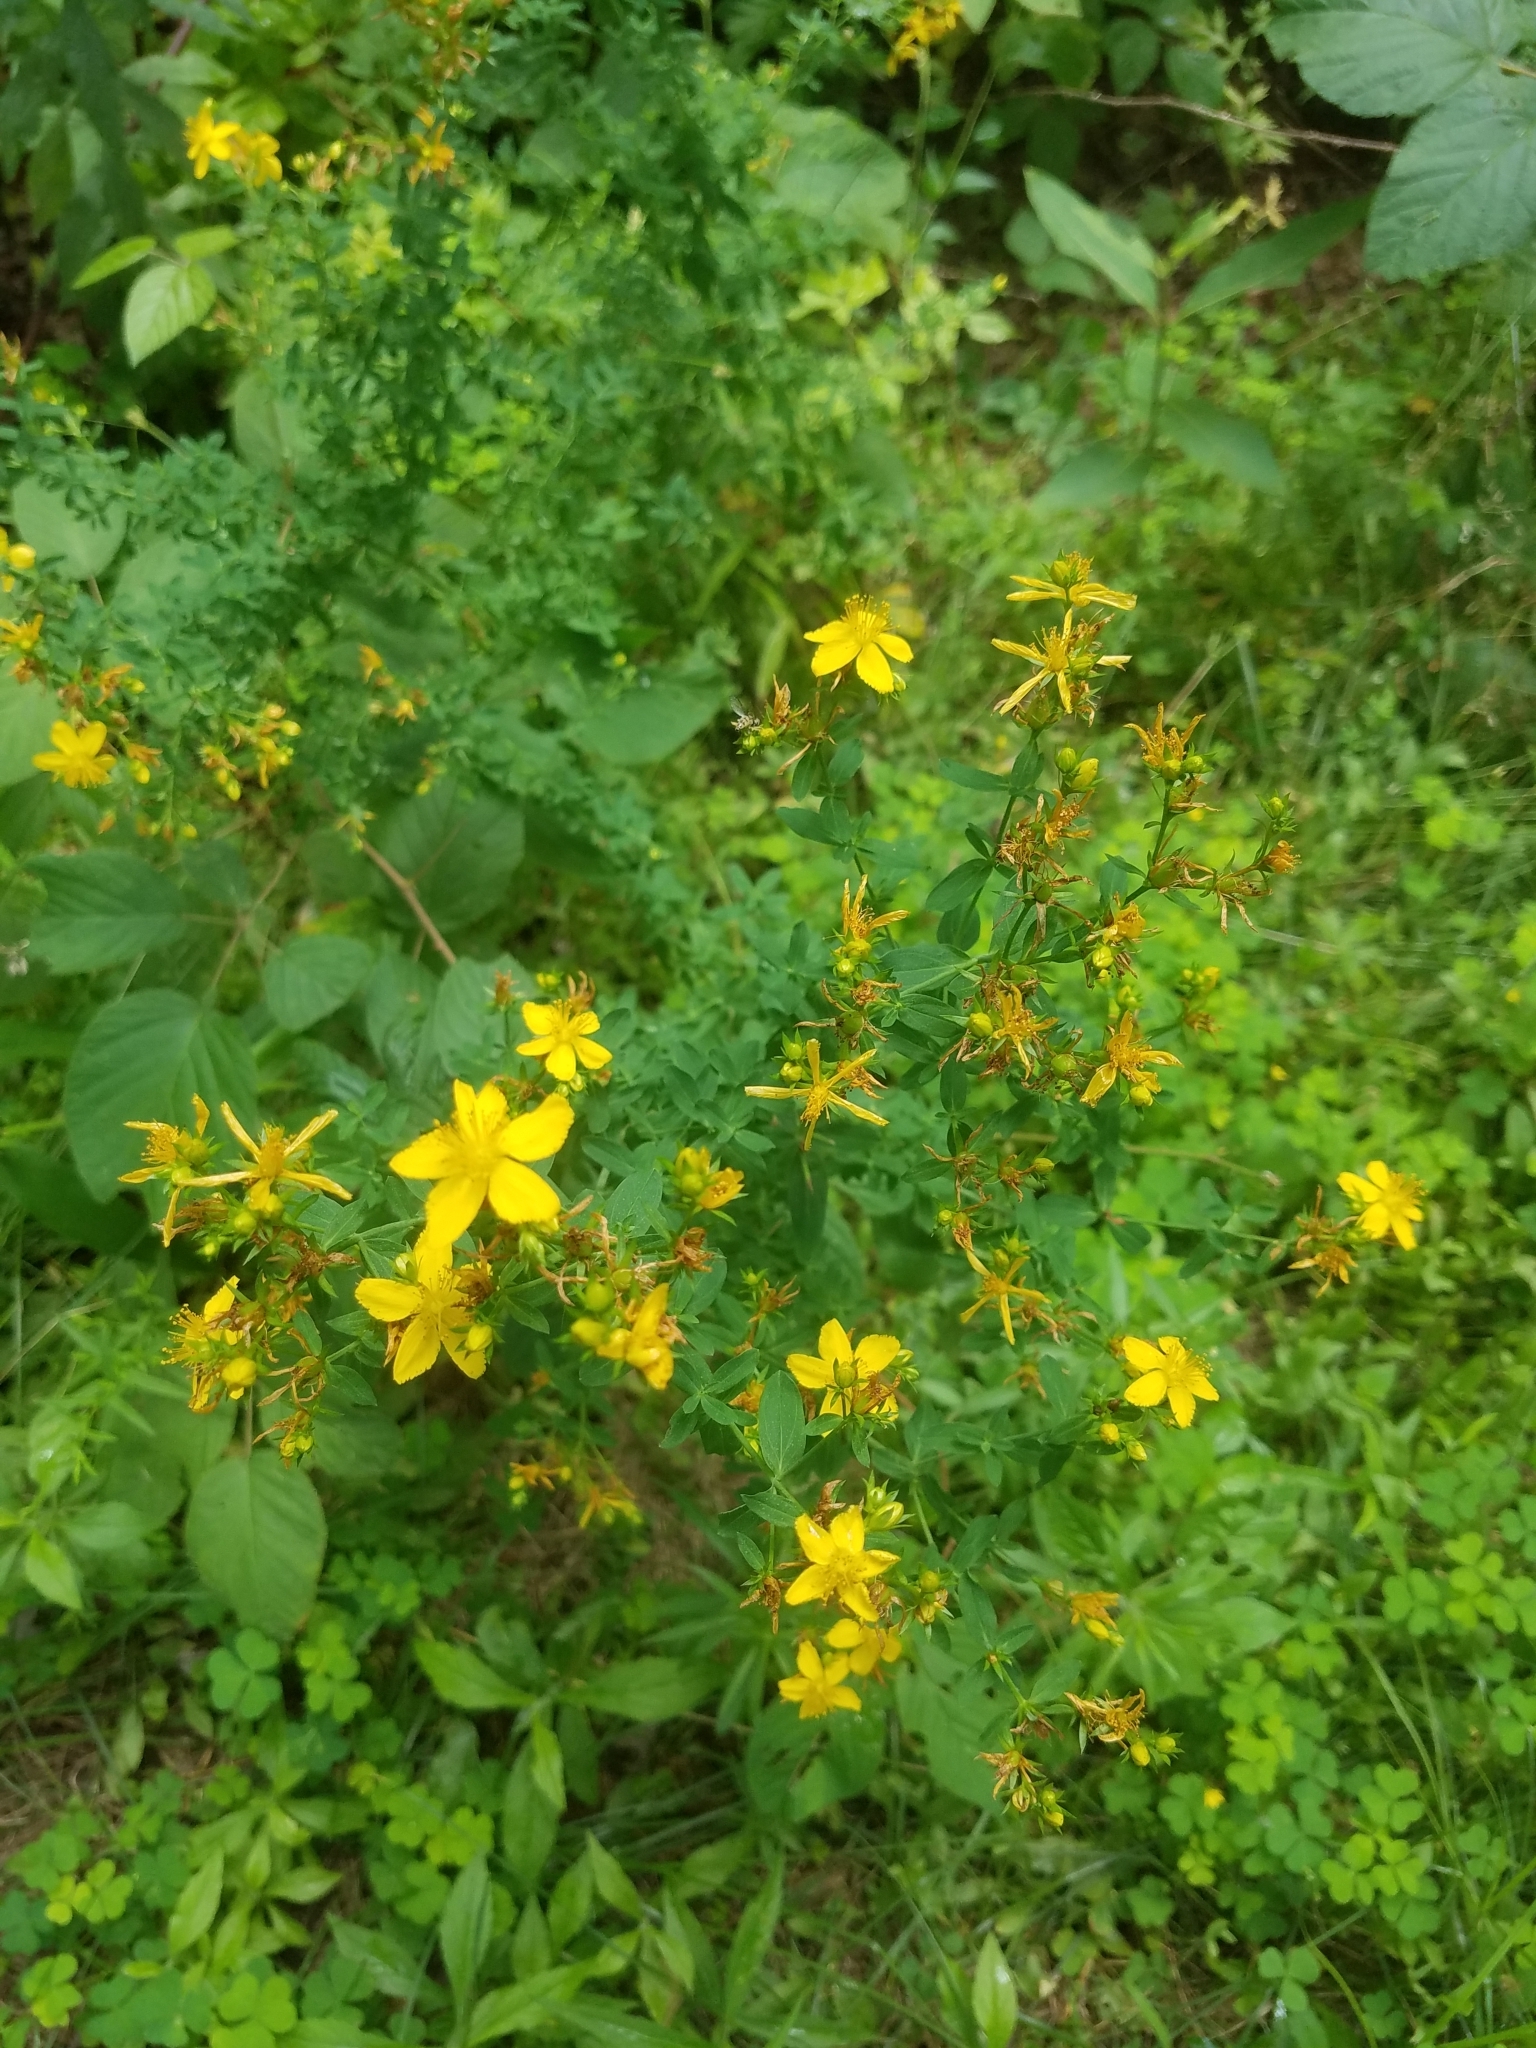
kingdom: Plantae
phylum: Tracheophyta
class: Magnoliopsida
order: Malpighiales
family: Hypericaceae
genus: Hypericum
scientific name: Hypericum perforatum
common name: Common st. johnswort
